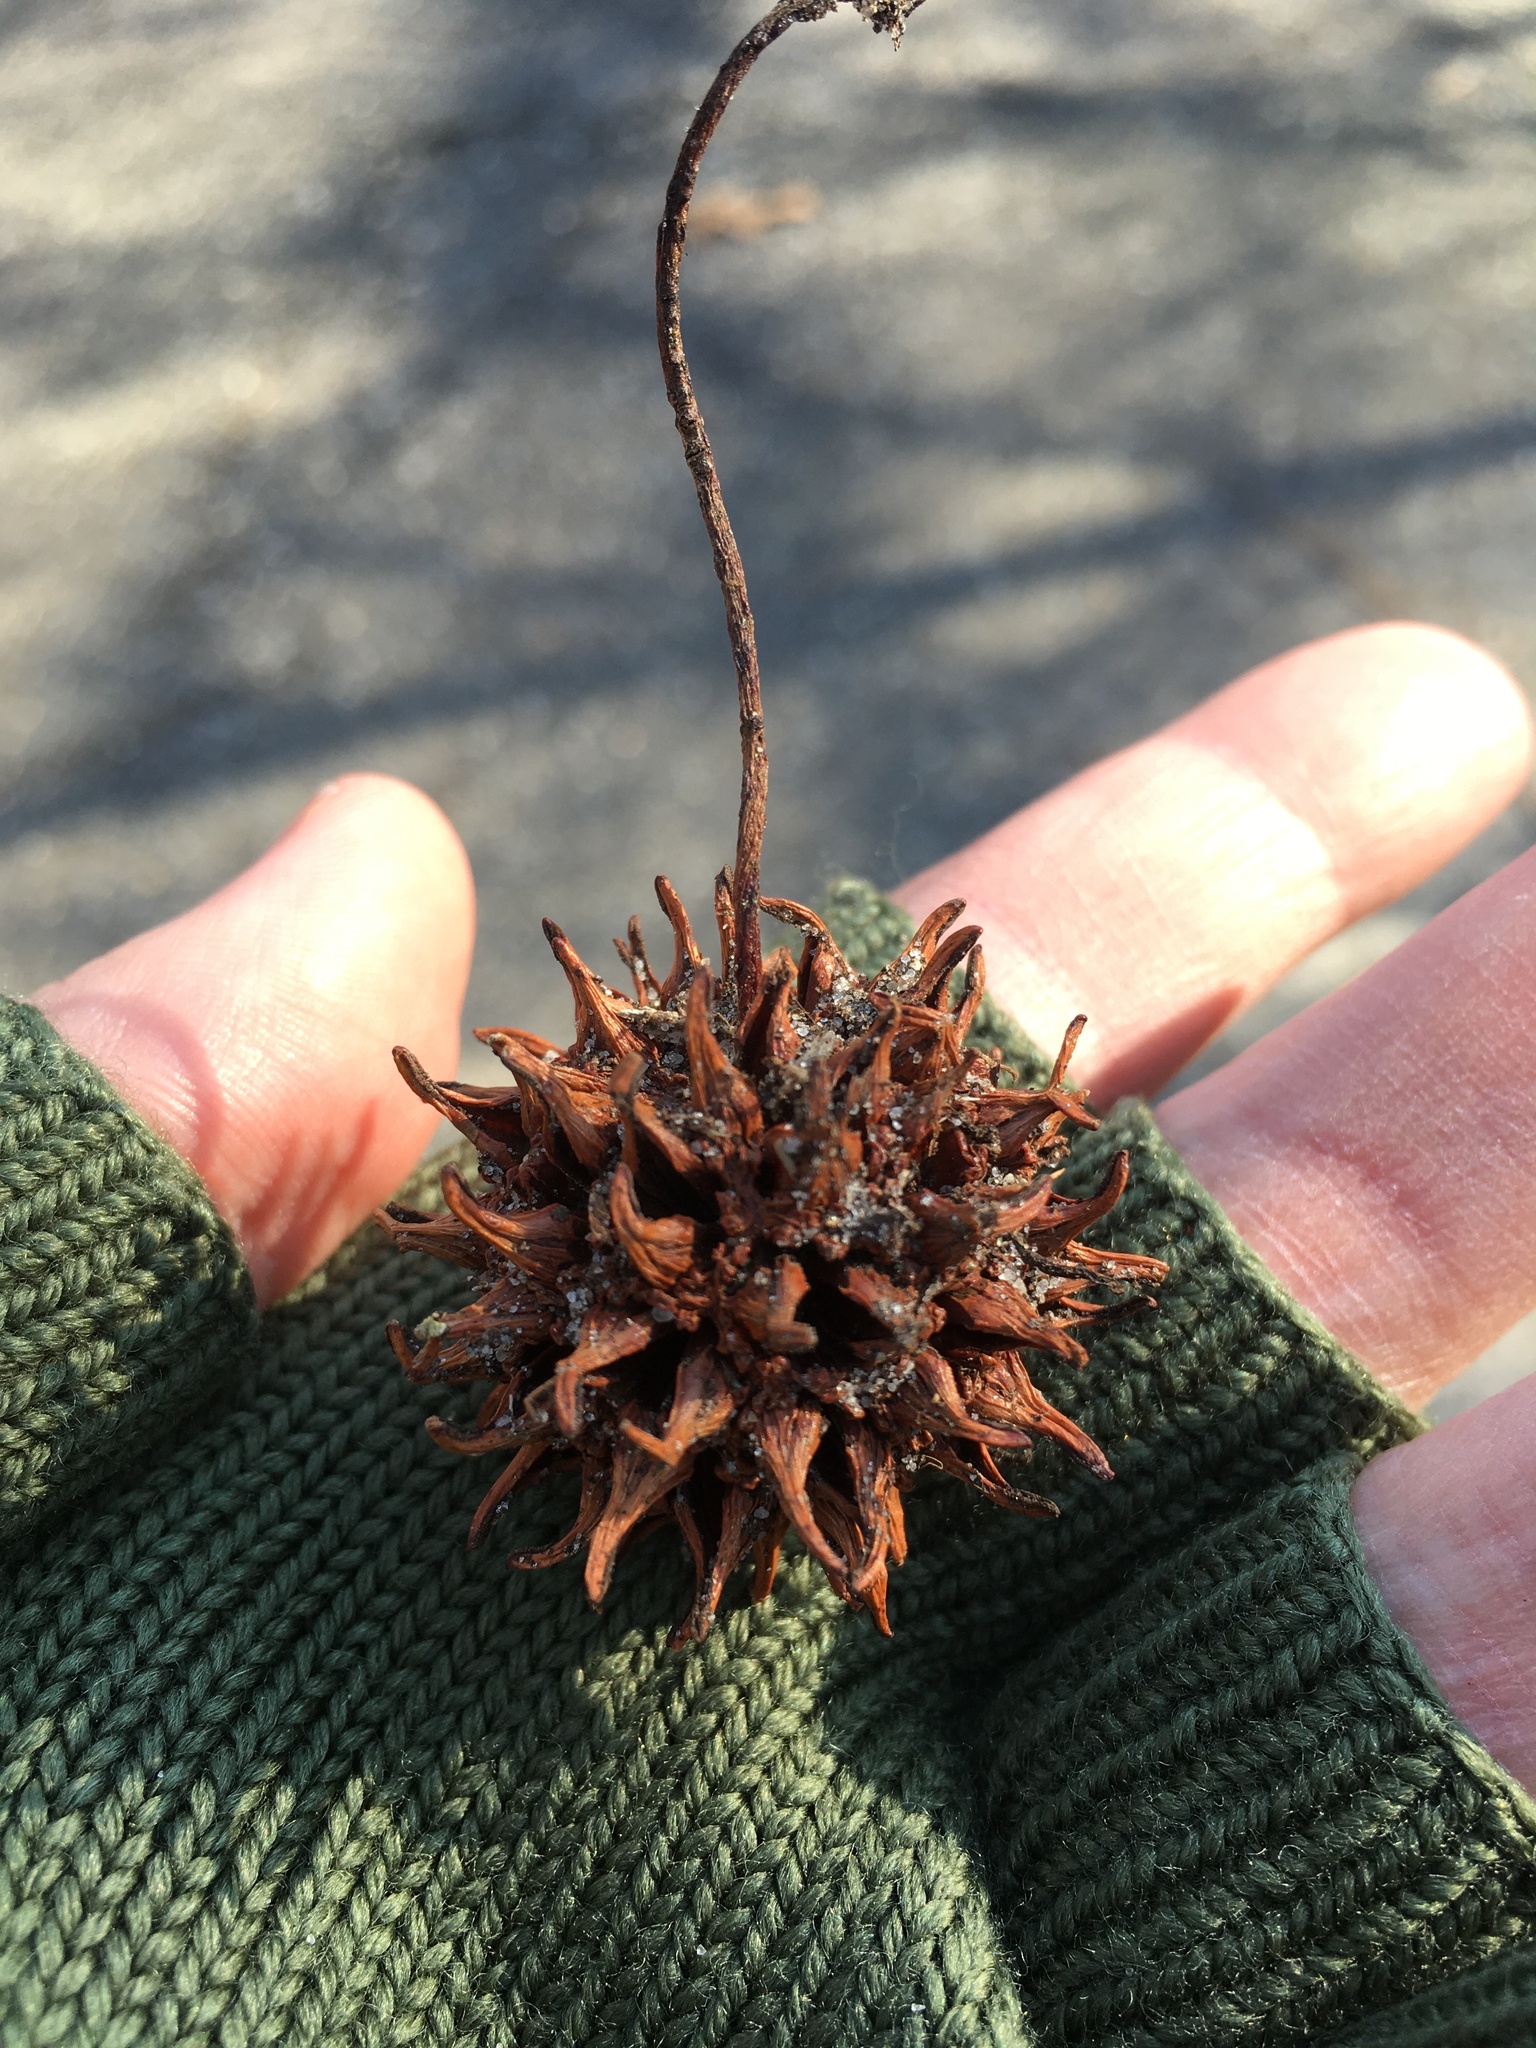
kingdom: Plantae
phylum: Tracheophyta
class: Magnoliopsida
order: Saxifragales
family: Altingiaceae
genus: Liquidambar
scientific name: Liquidambar styraciflua
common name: Sweet gum
